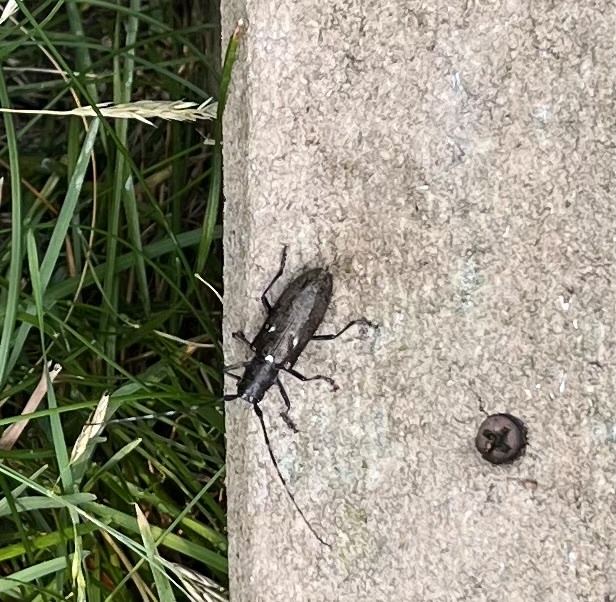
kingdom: Animalia
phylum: Arthropoda
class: Insecta
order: Coleoptera
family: Cerambycidae
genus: Monochamus
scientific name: Monochamus scutellatus
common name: White-spotted sawyer beetle
